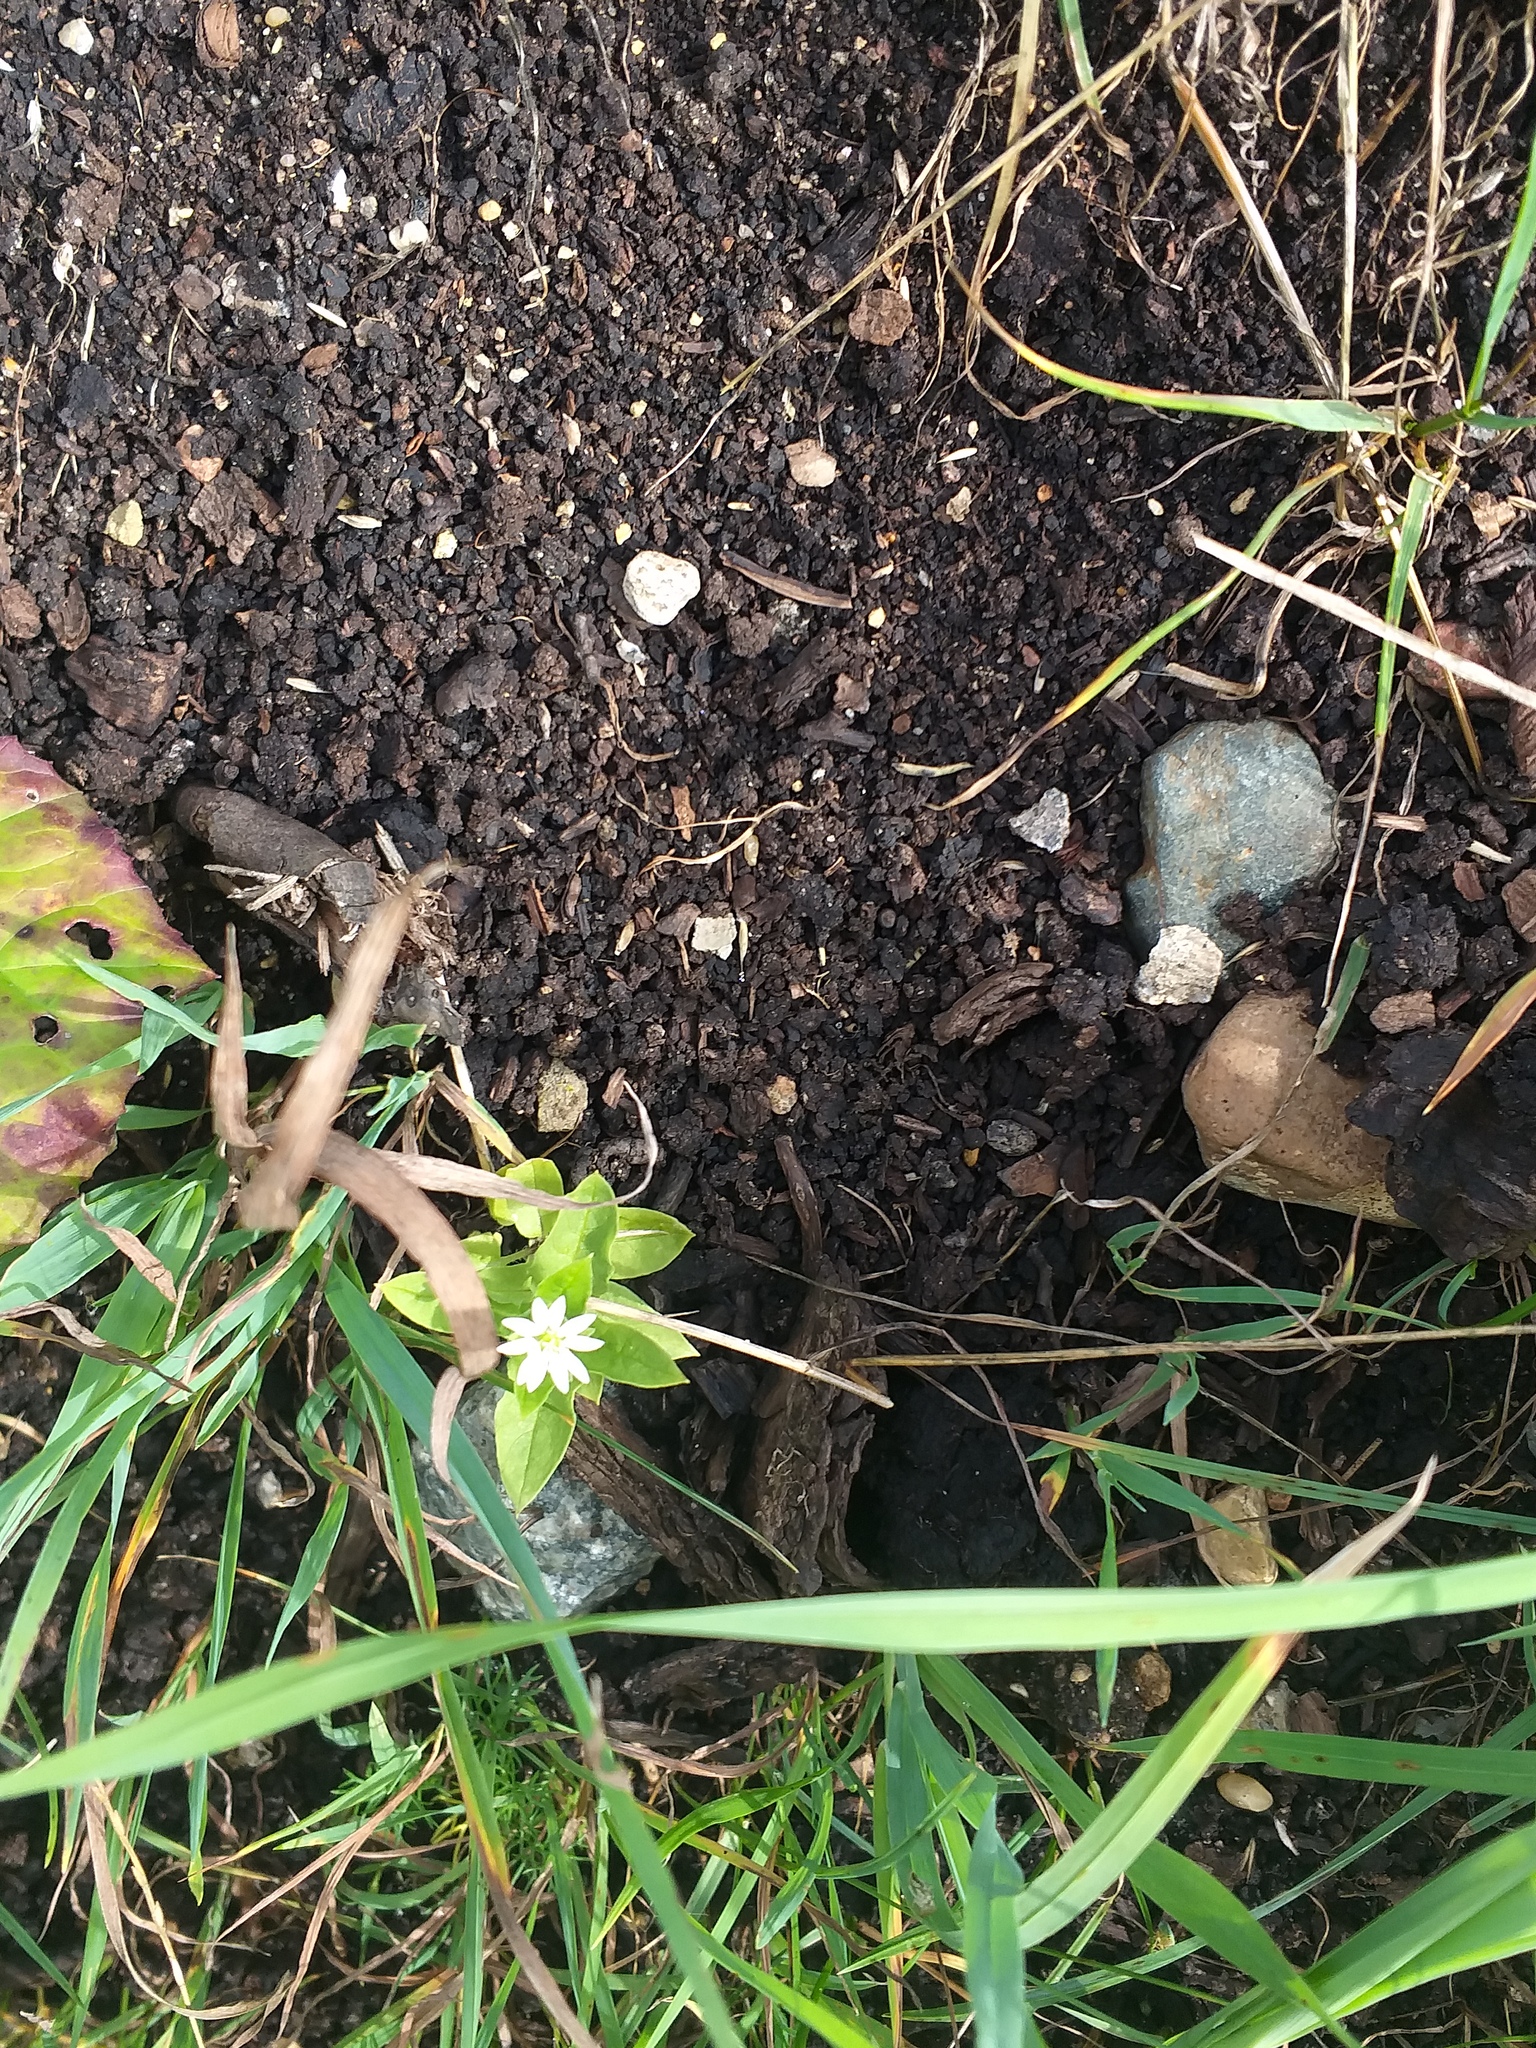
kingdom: Plantae
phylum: Tracheophyta
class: Magnoliopsida
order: Caryophyllales
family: Caryophyllaceae
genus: Stellaria
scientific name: Stellaria aquatica
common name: Water chickweed
